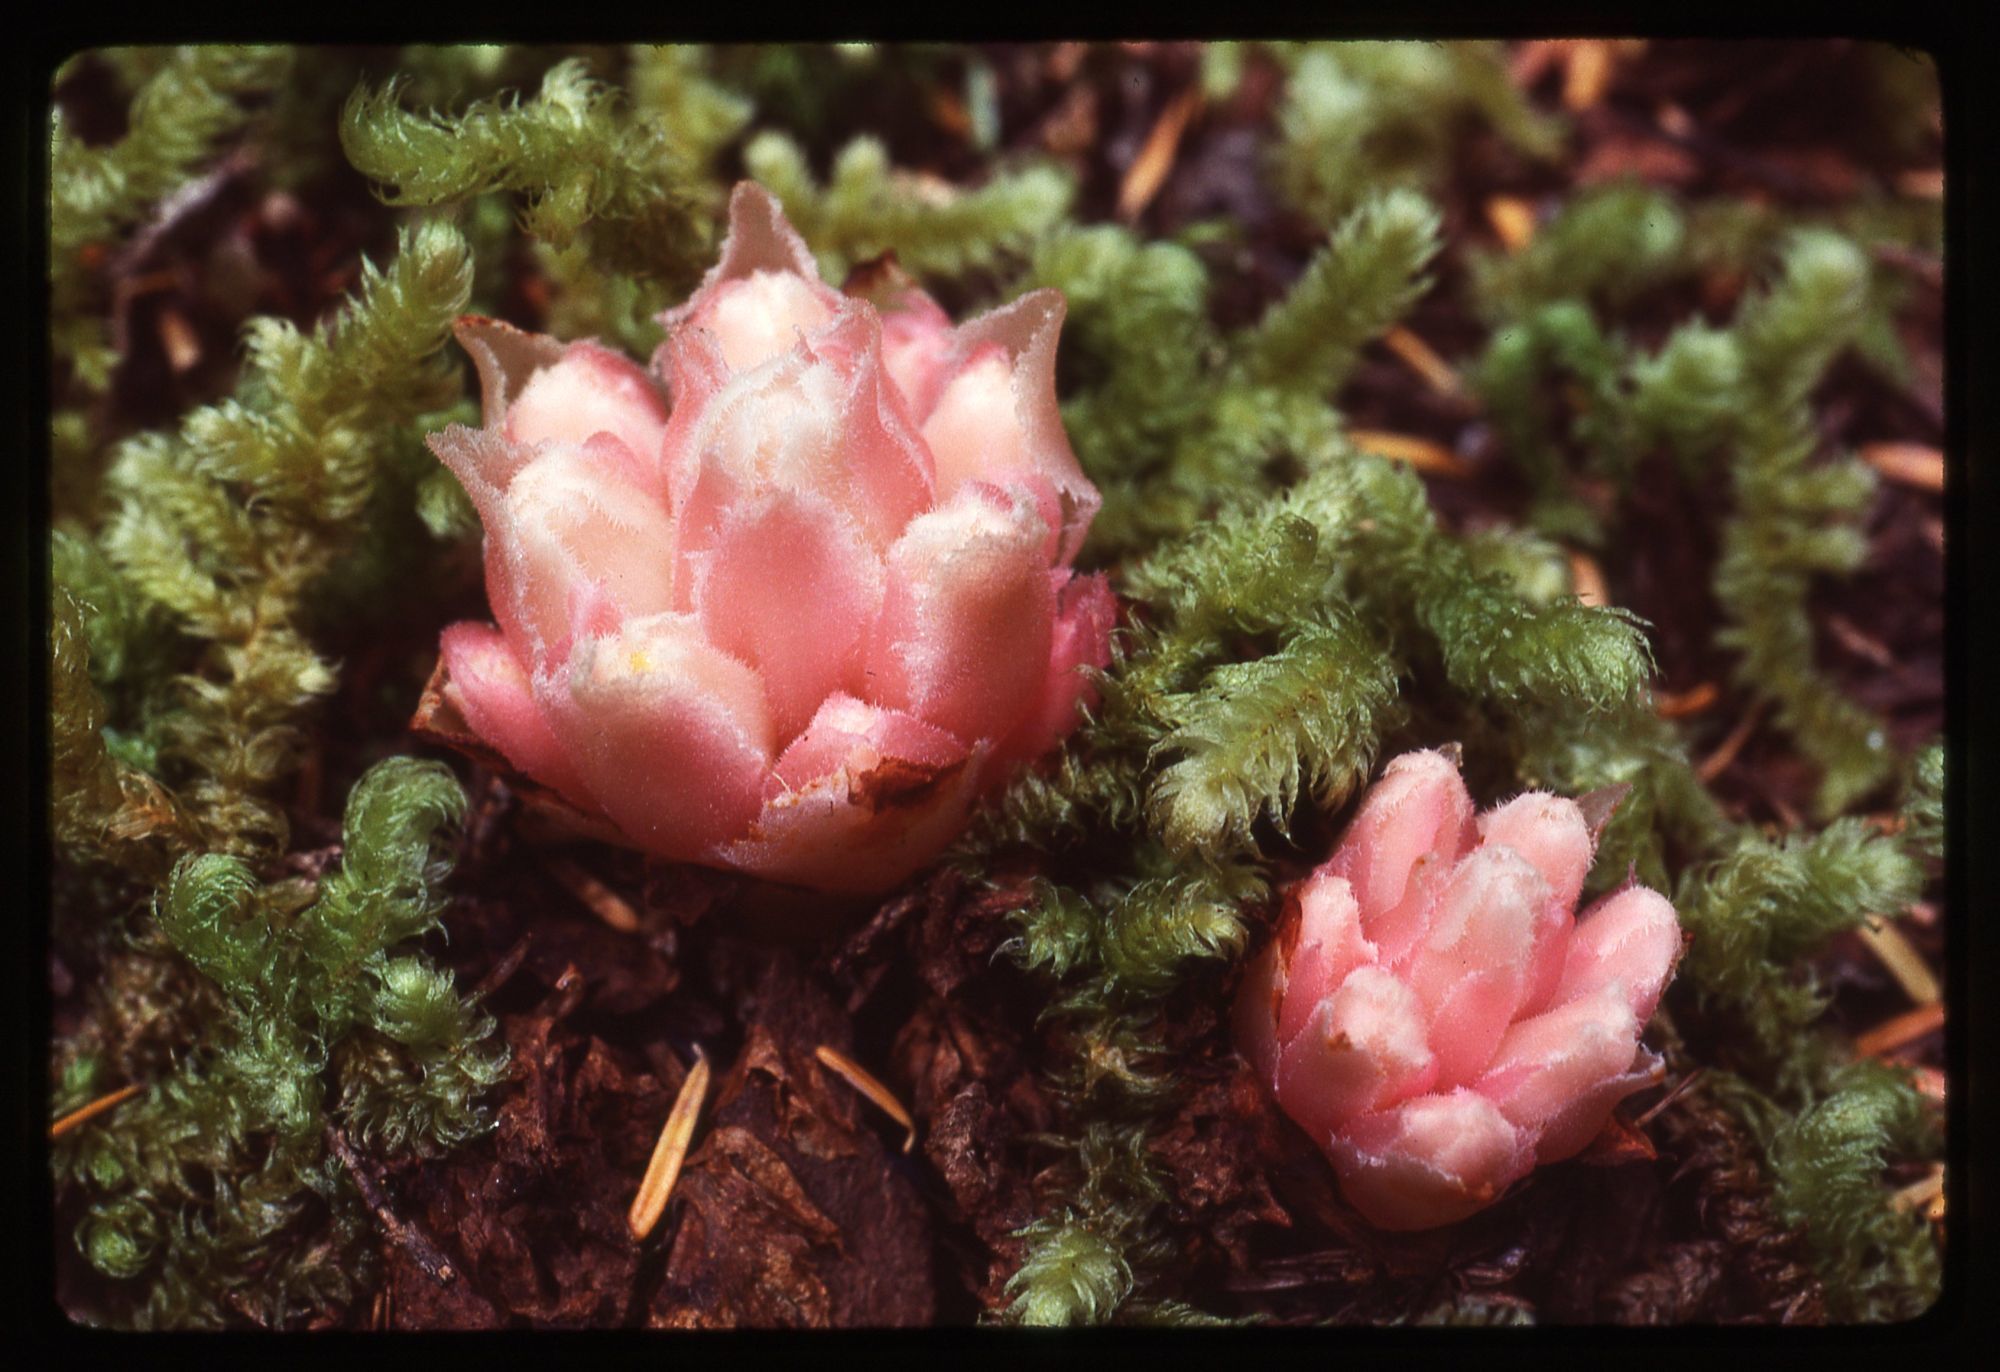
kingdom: Plantae
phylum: Tracheophyta
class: Magnoliopsida
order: Ericales
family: Ericaceae
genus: Hemitomes
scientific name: Hemitomes congestum
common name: Cone plant
